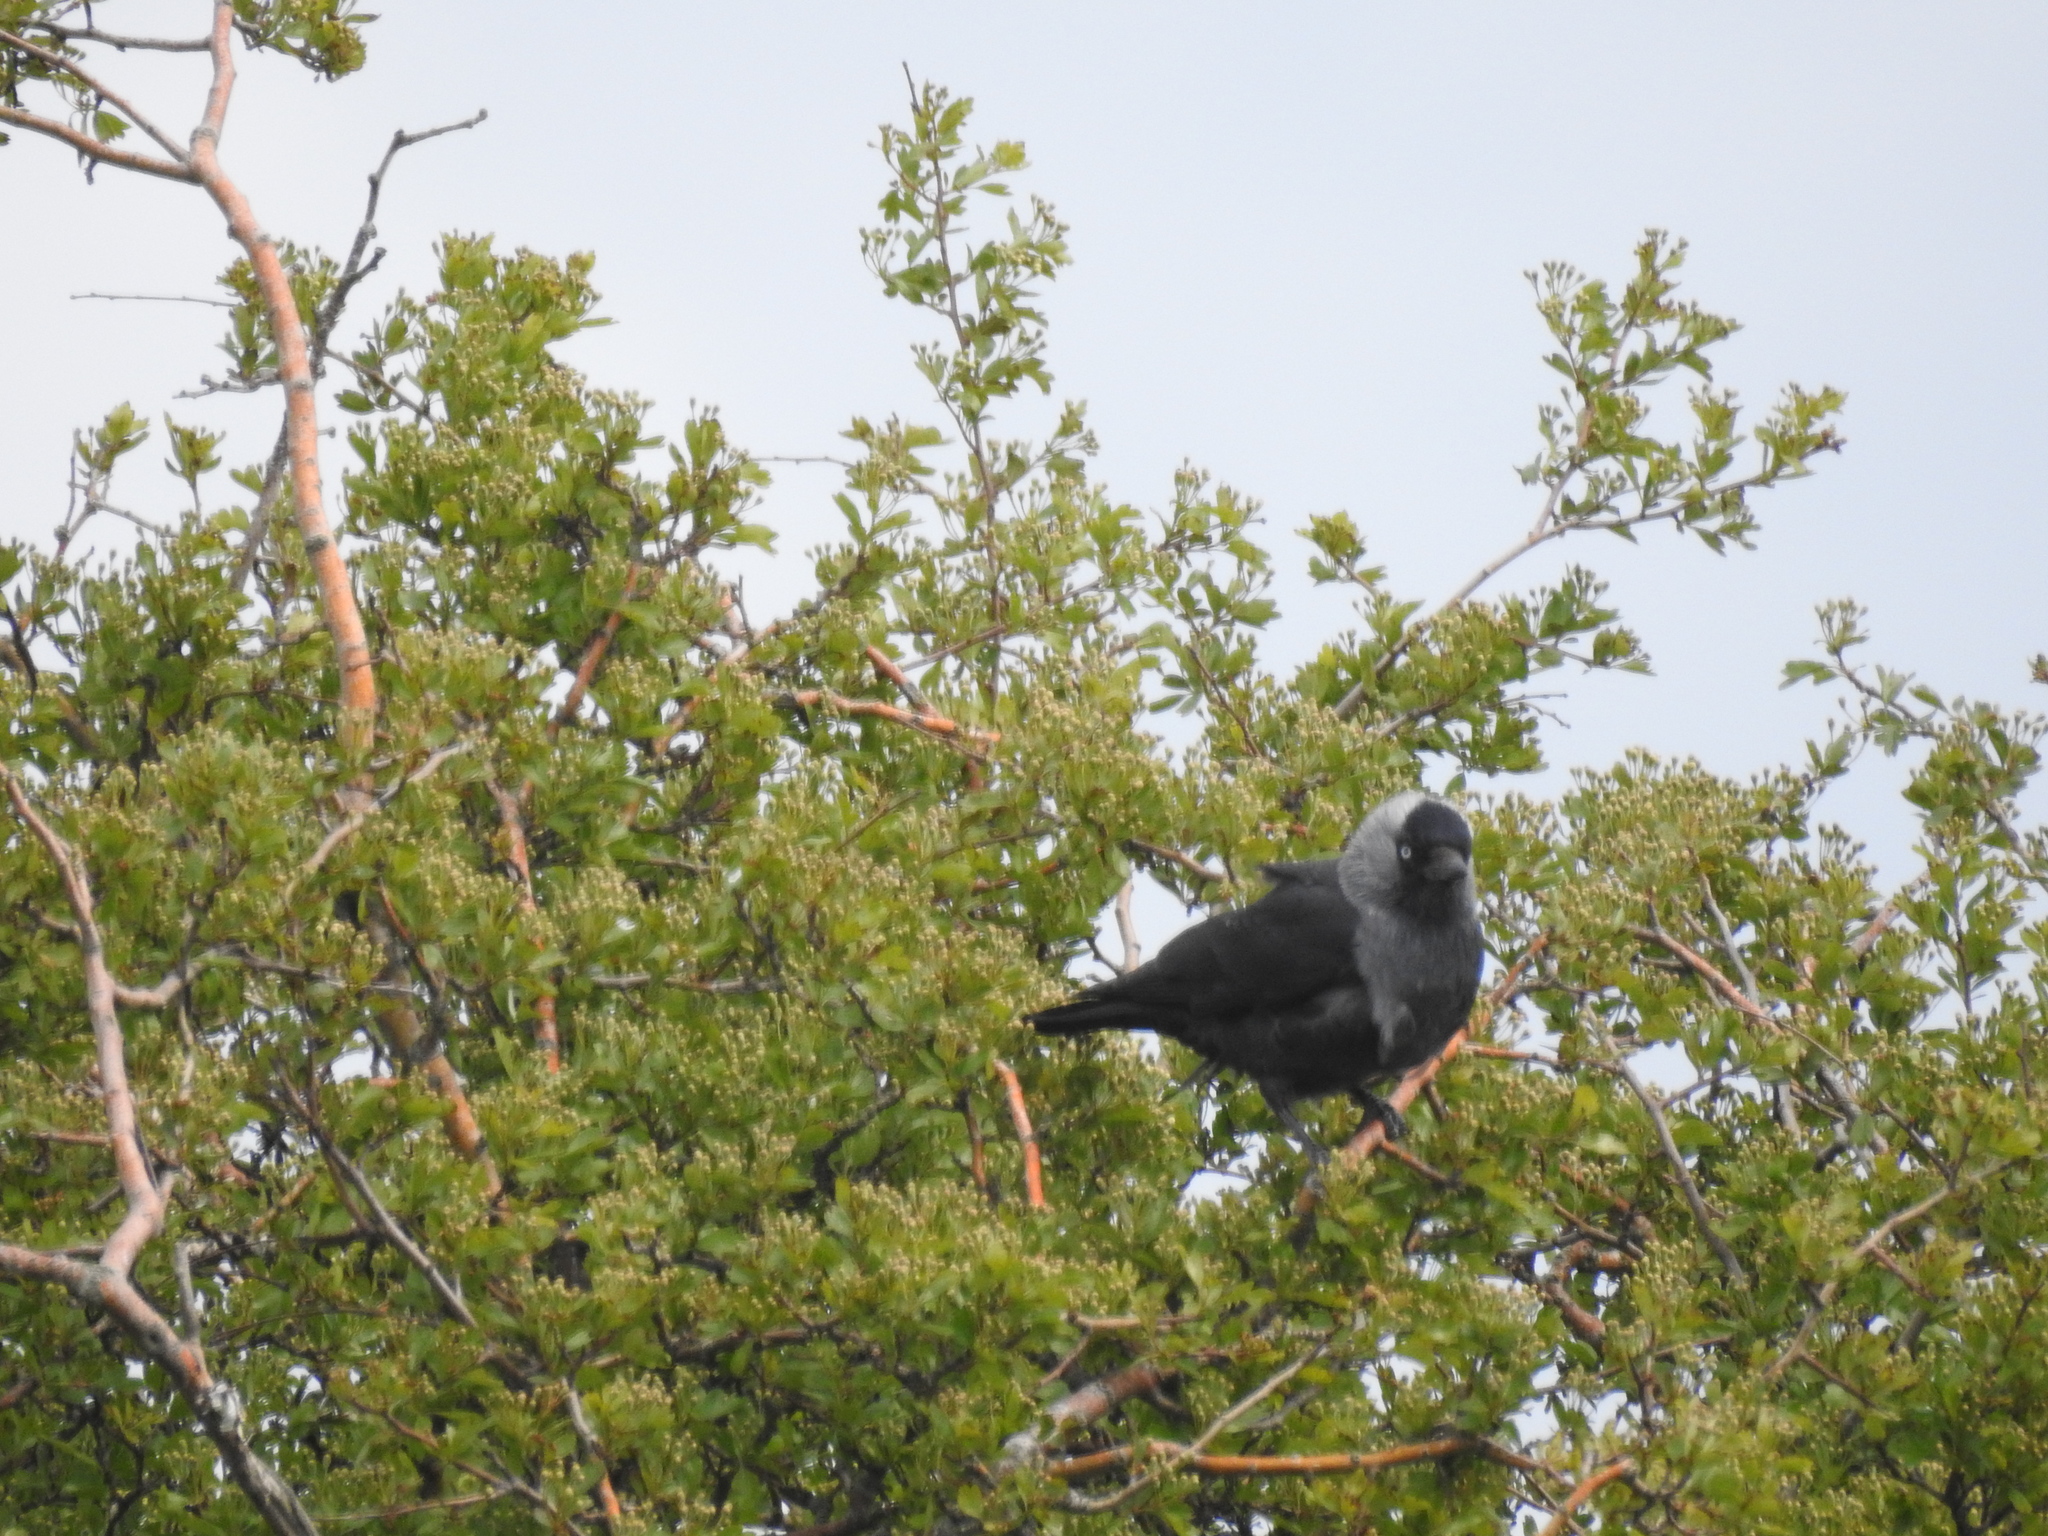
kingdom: Animalia
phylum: Chordata
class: Aves
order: Passeriformes
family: Corvidae
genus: Coloeus
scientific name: Coloeus monedula
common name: Western jackdaw
